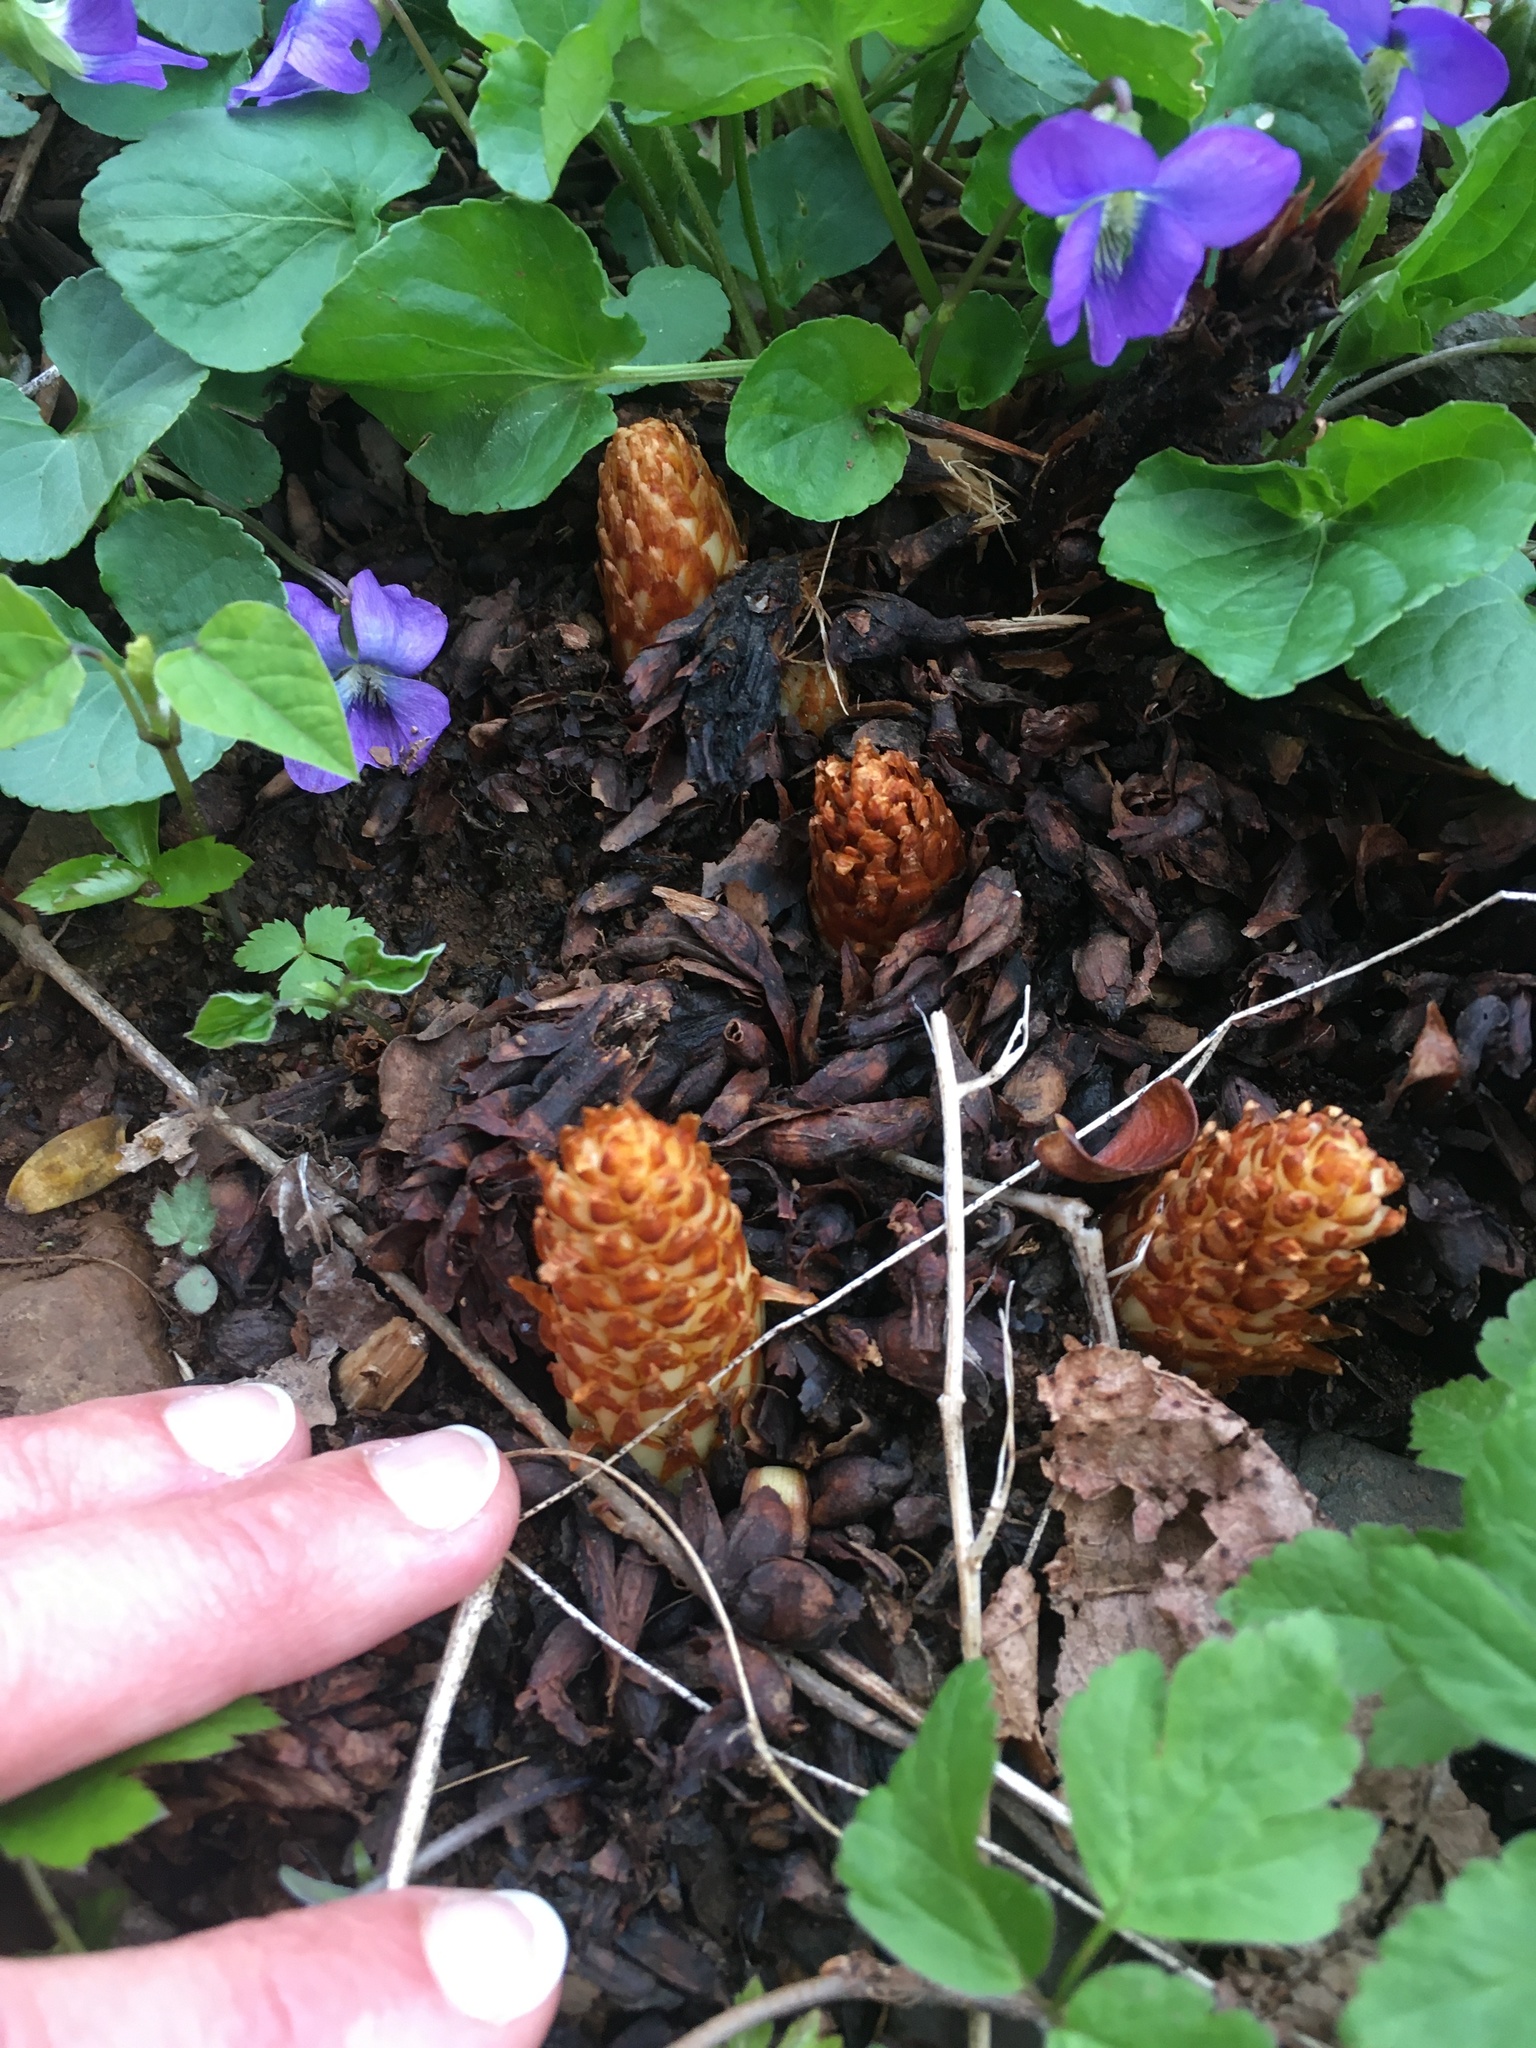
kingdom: Plantae
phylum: Tracheophyta
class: Magnoliopsida
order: Lamiales
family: Orobanchaceae
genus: Conopholis
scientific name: Conopholis americana
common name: American cancer-root
